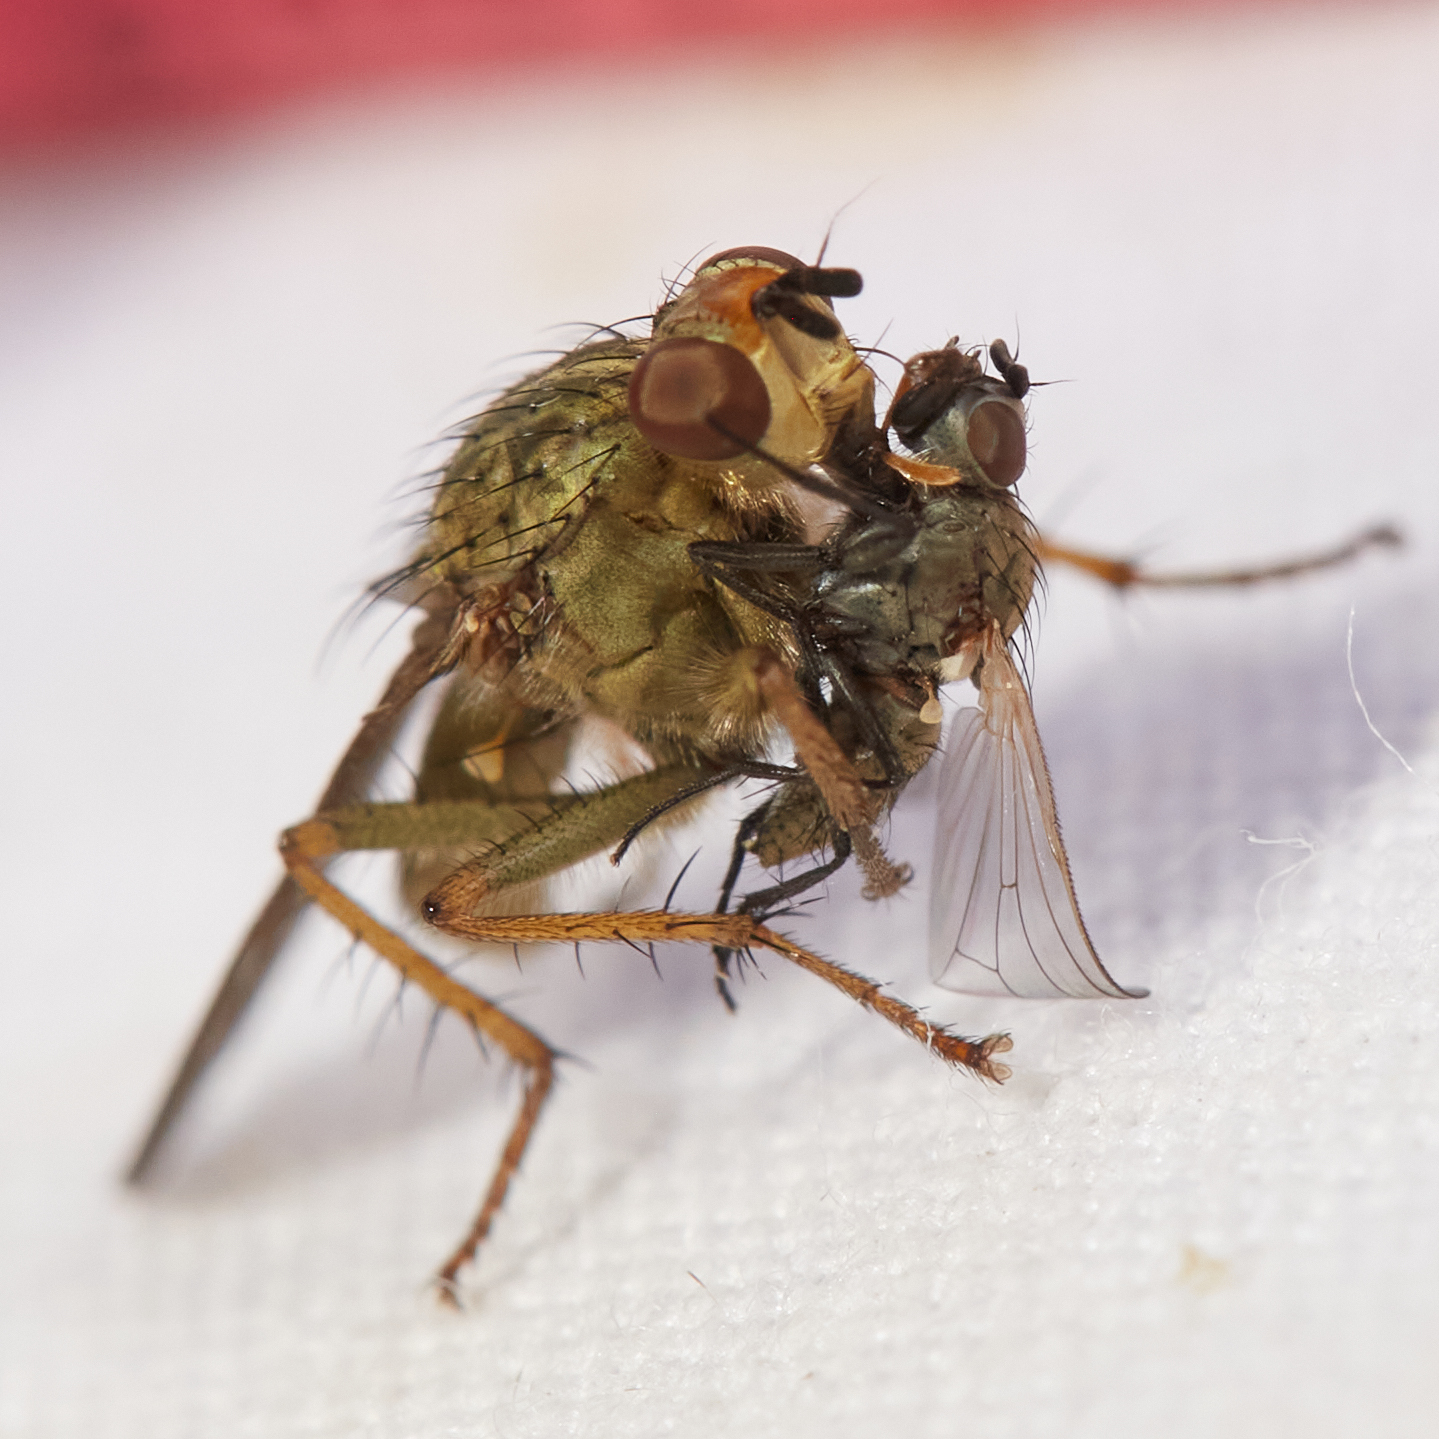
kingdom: Animalia
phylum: Arthropoda
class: Insecta
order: Diptera
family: Scathophagidae
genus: Scathophaga
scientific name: Scathophaga stercoraria
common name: Yellow dung fly
